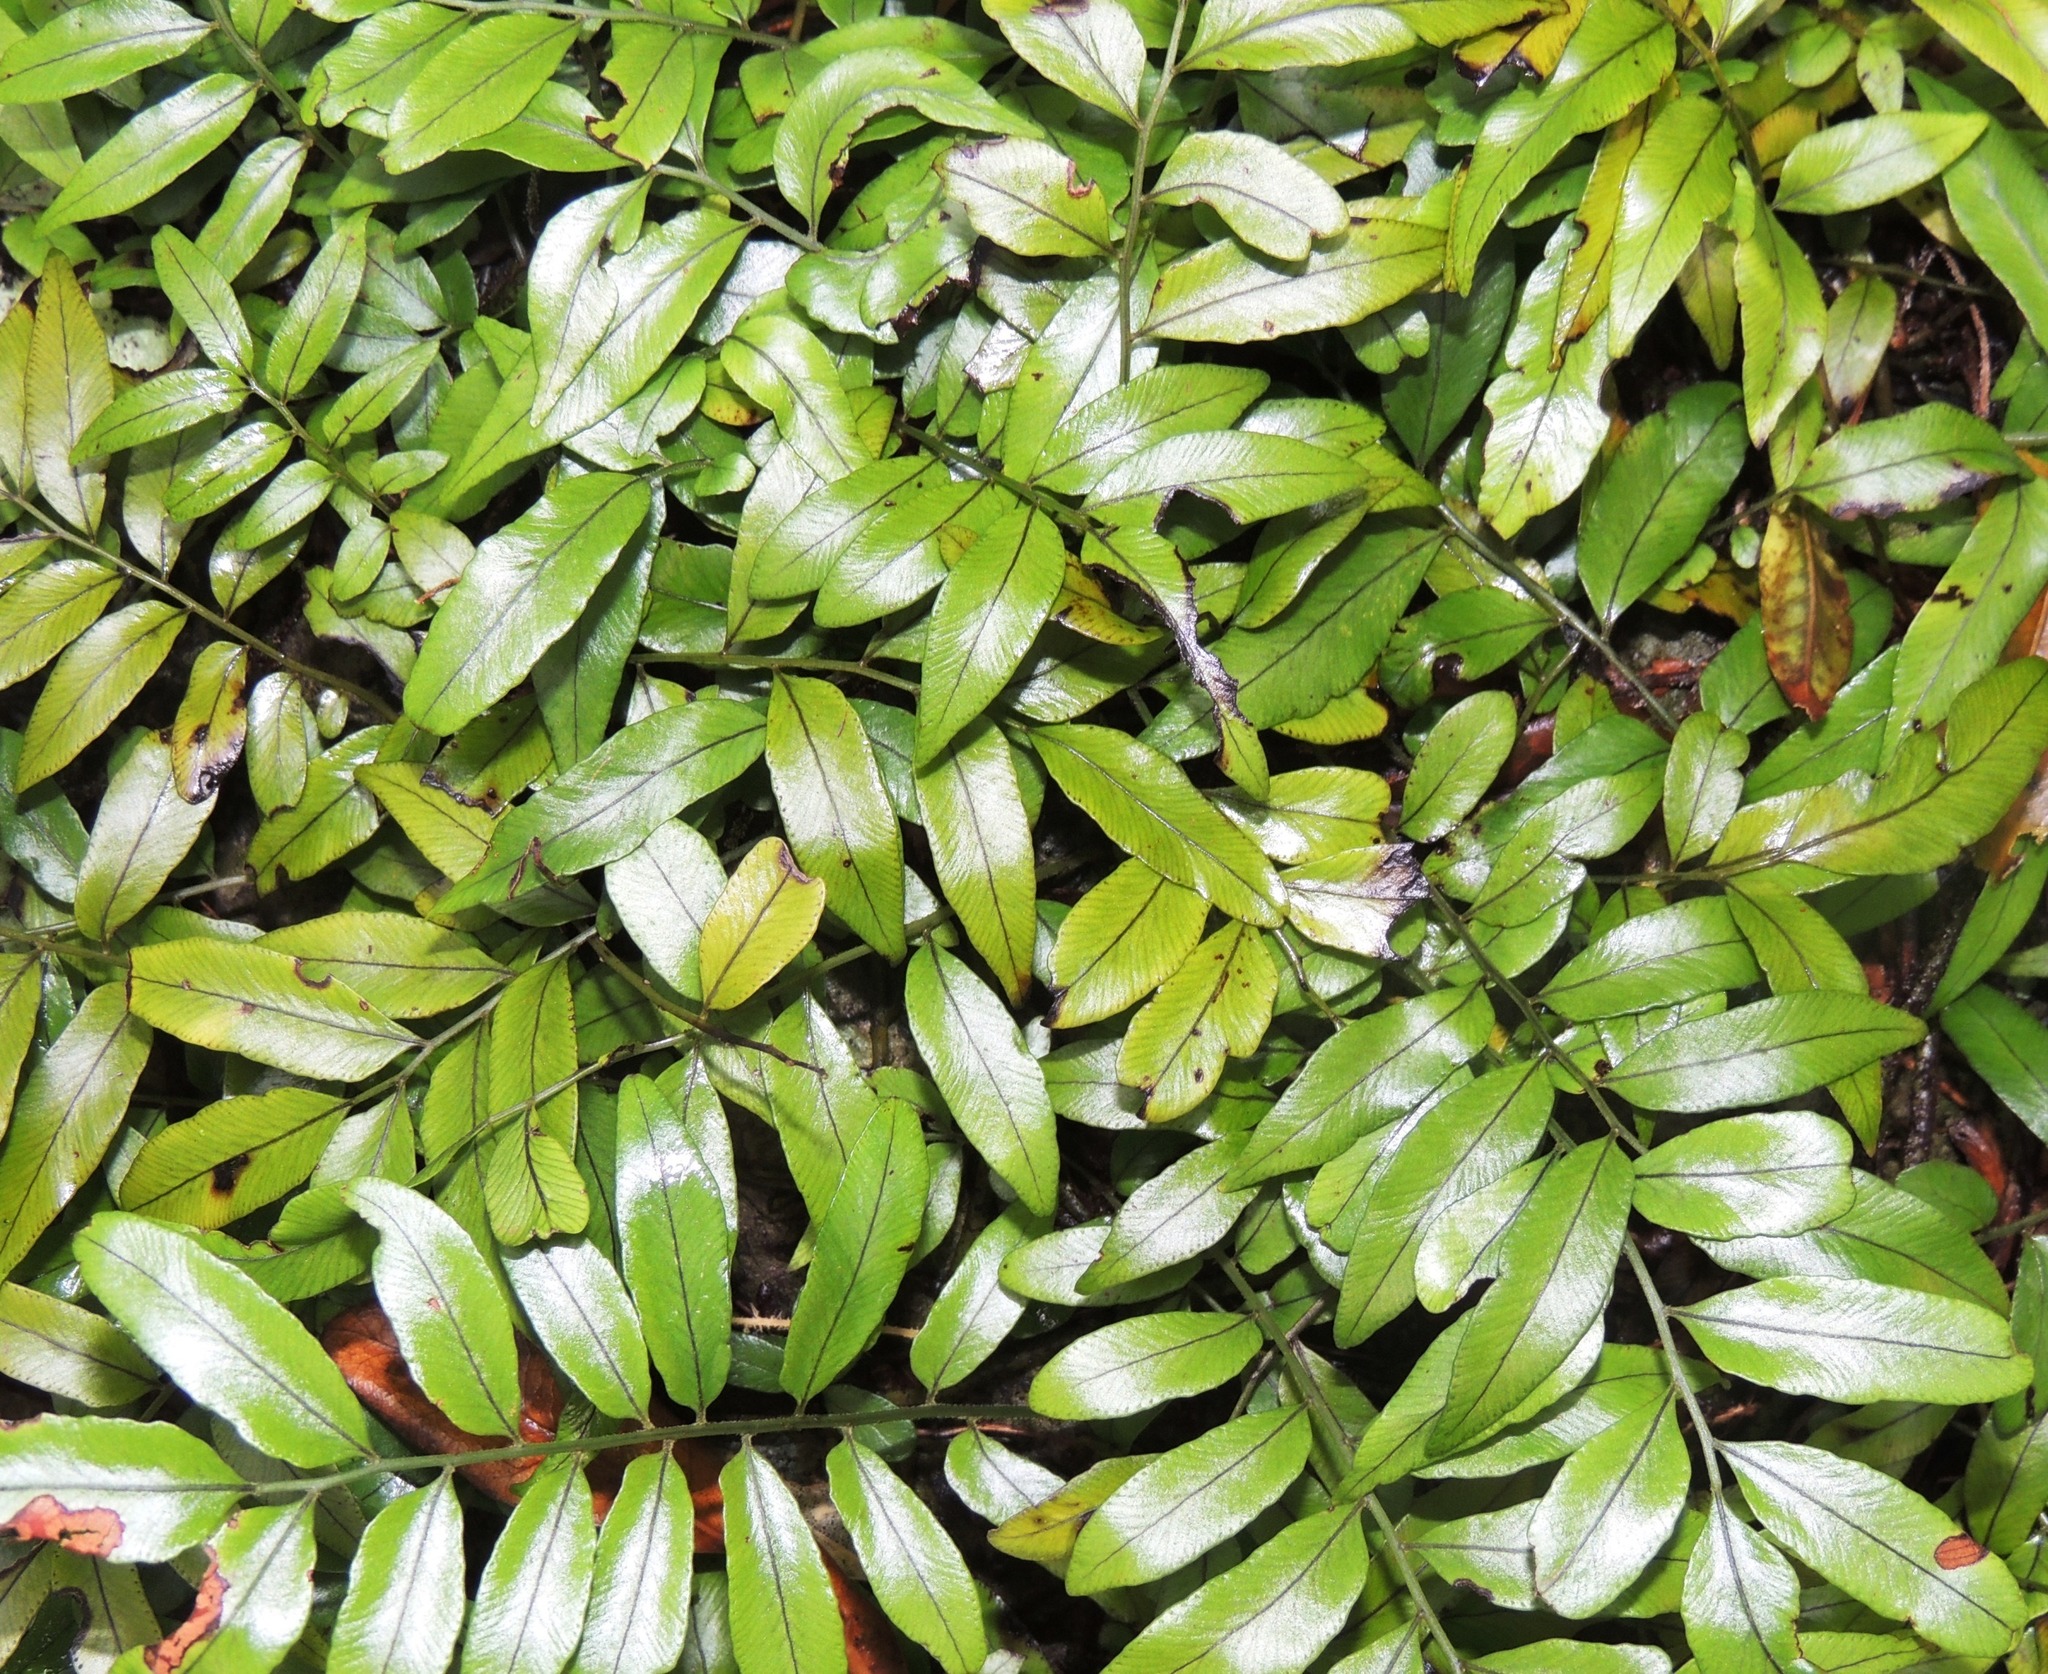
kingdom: Plantae
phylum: Tracheophyta
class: Polypodiopsida
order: Polypodiales
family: Tectariaceae
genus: Arthropteris
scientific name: Arthropteris tenella
